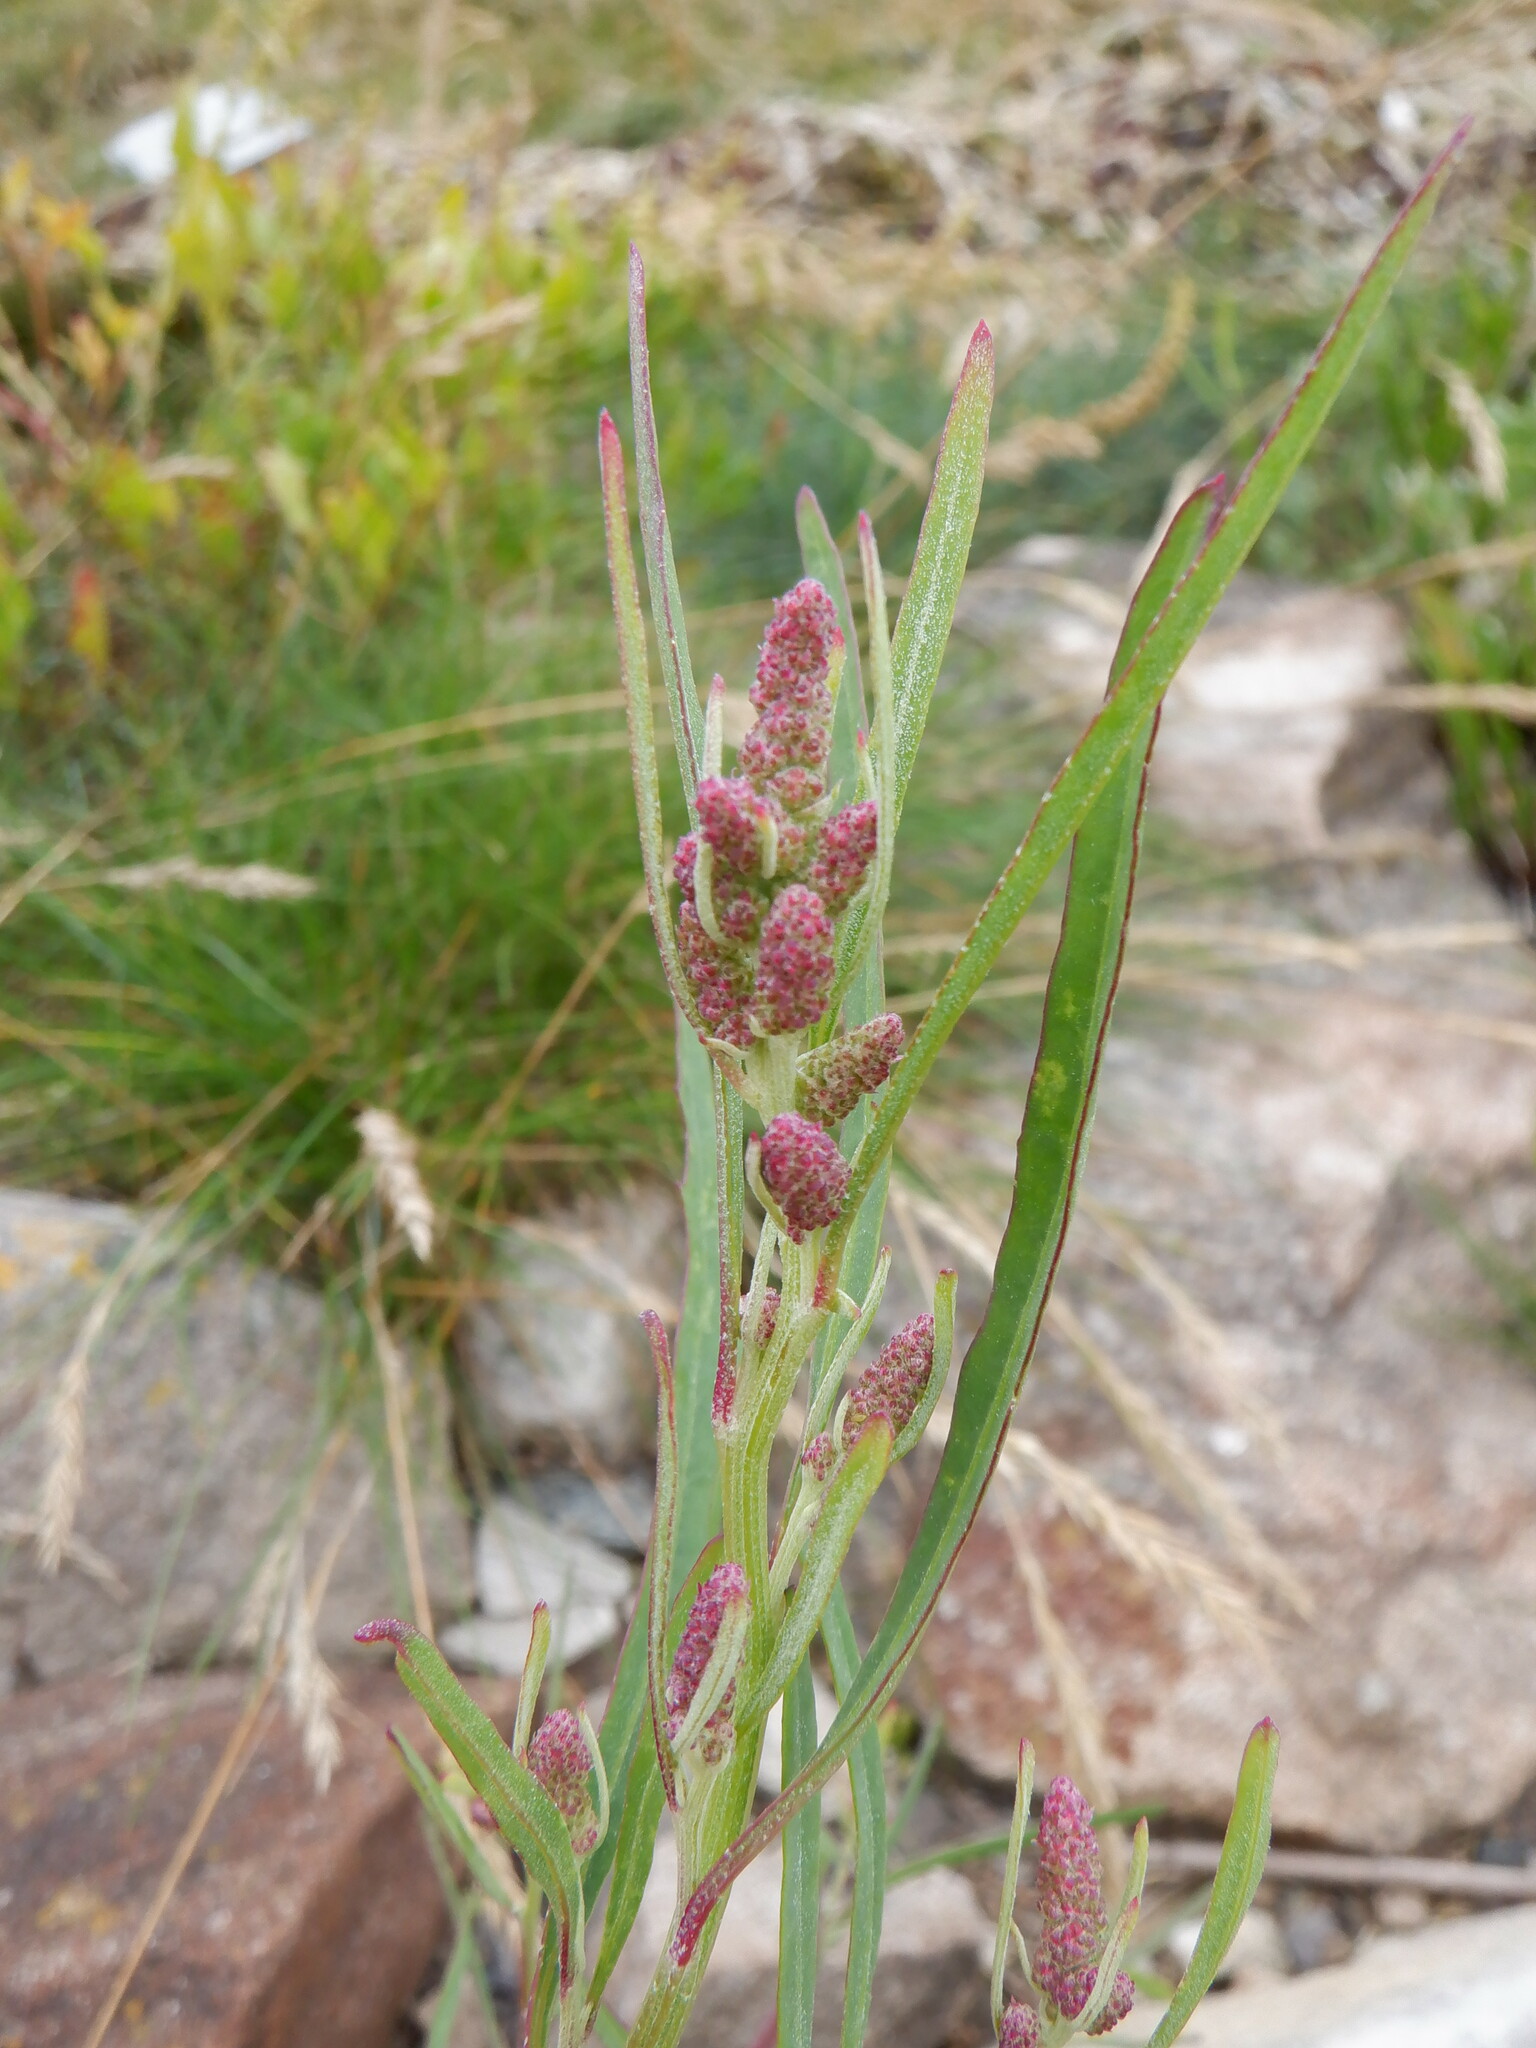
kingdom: Plantae
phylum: Tracheophyta
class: Magnoliopsida
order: Caryophyllales
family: Amaranthaceae
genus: Atriplex
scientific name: Atriplex littoralis
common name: Grass-leaved orache
